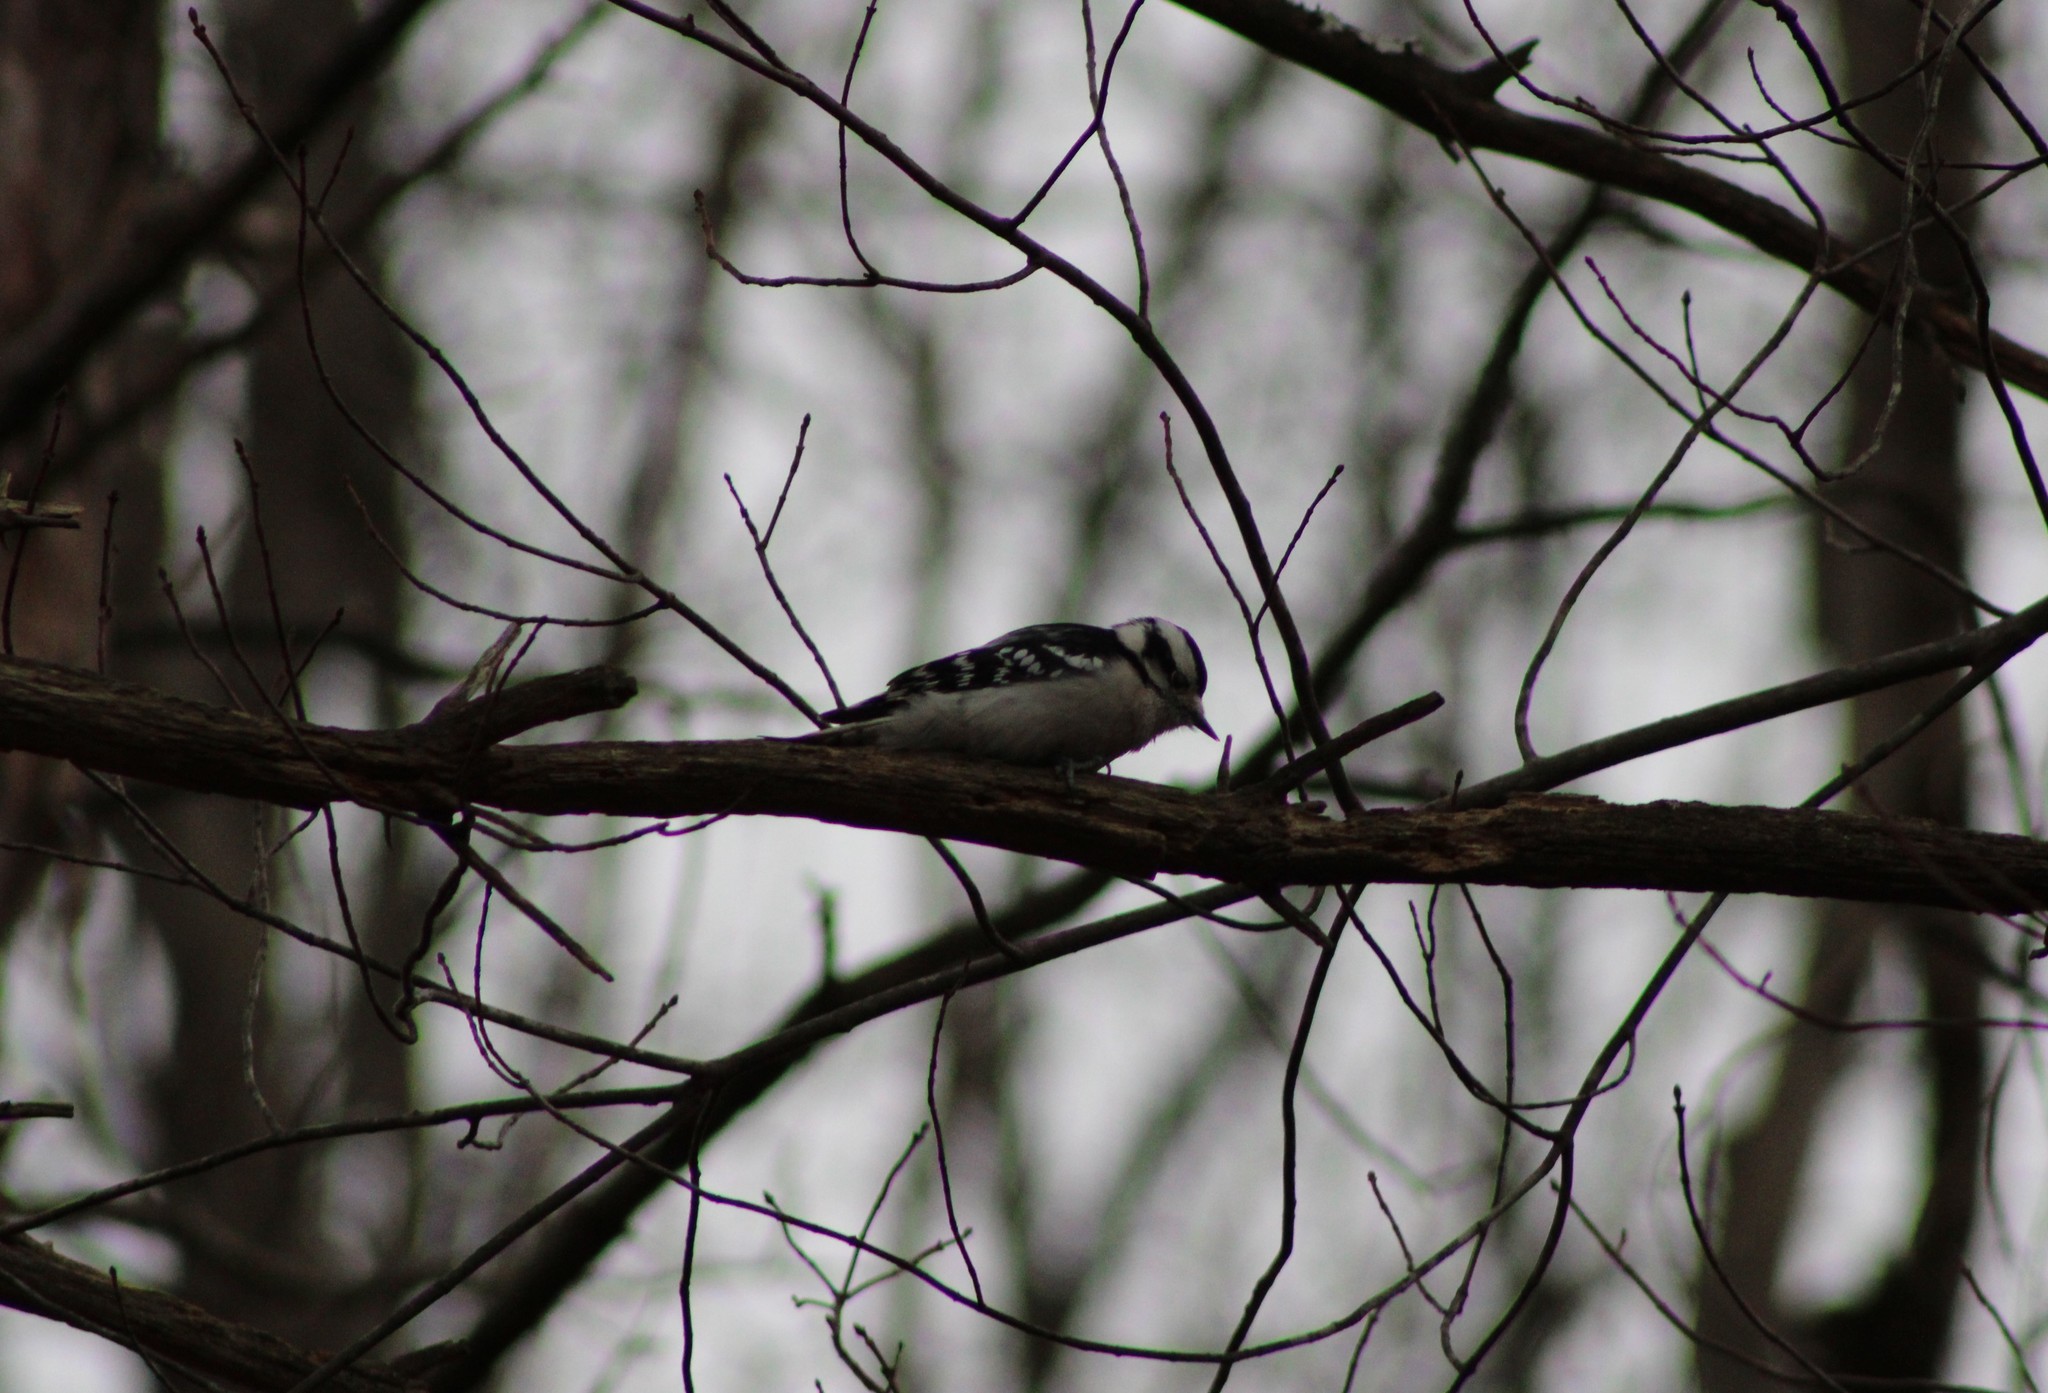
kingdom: Animalia
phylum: Chordata
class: Aves
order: Piciformes
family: Picidae
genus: Dryobates
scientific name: Dryobates pubescens
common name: Downy woodpecker
